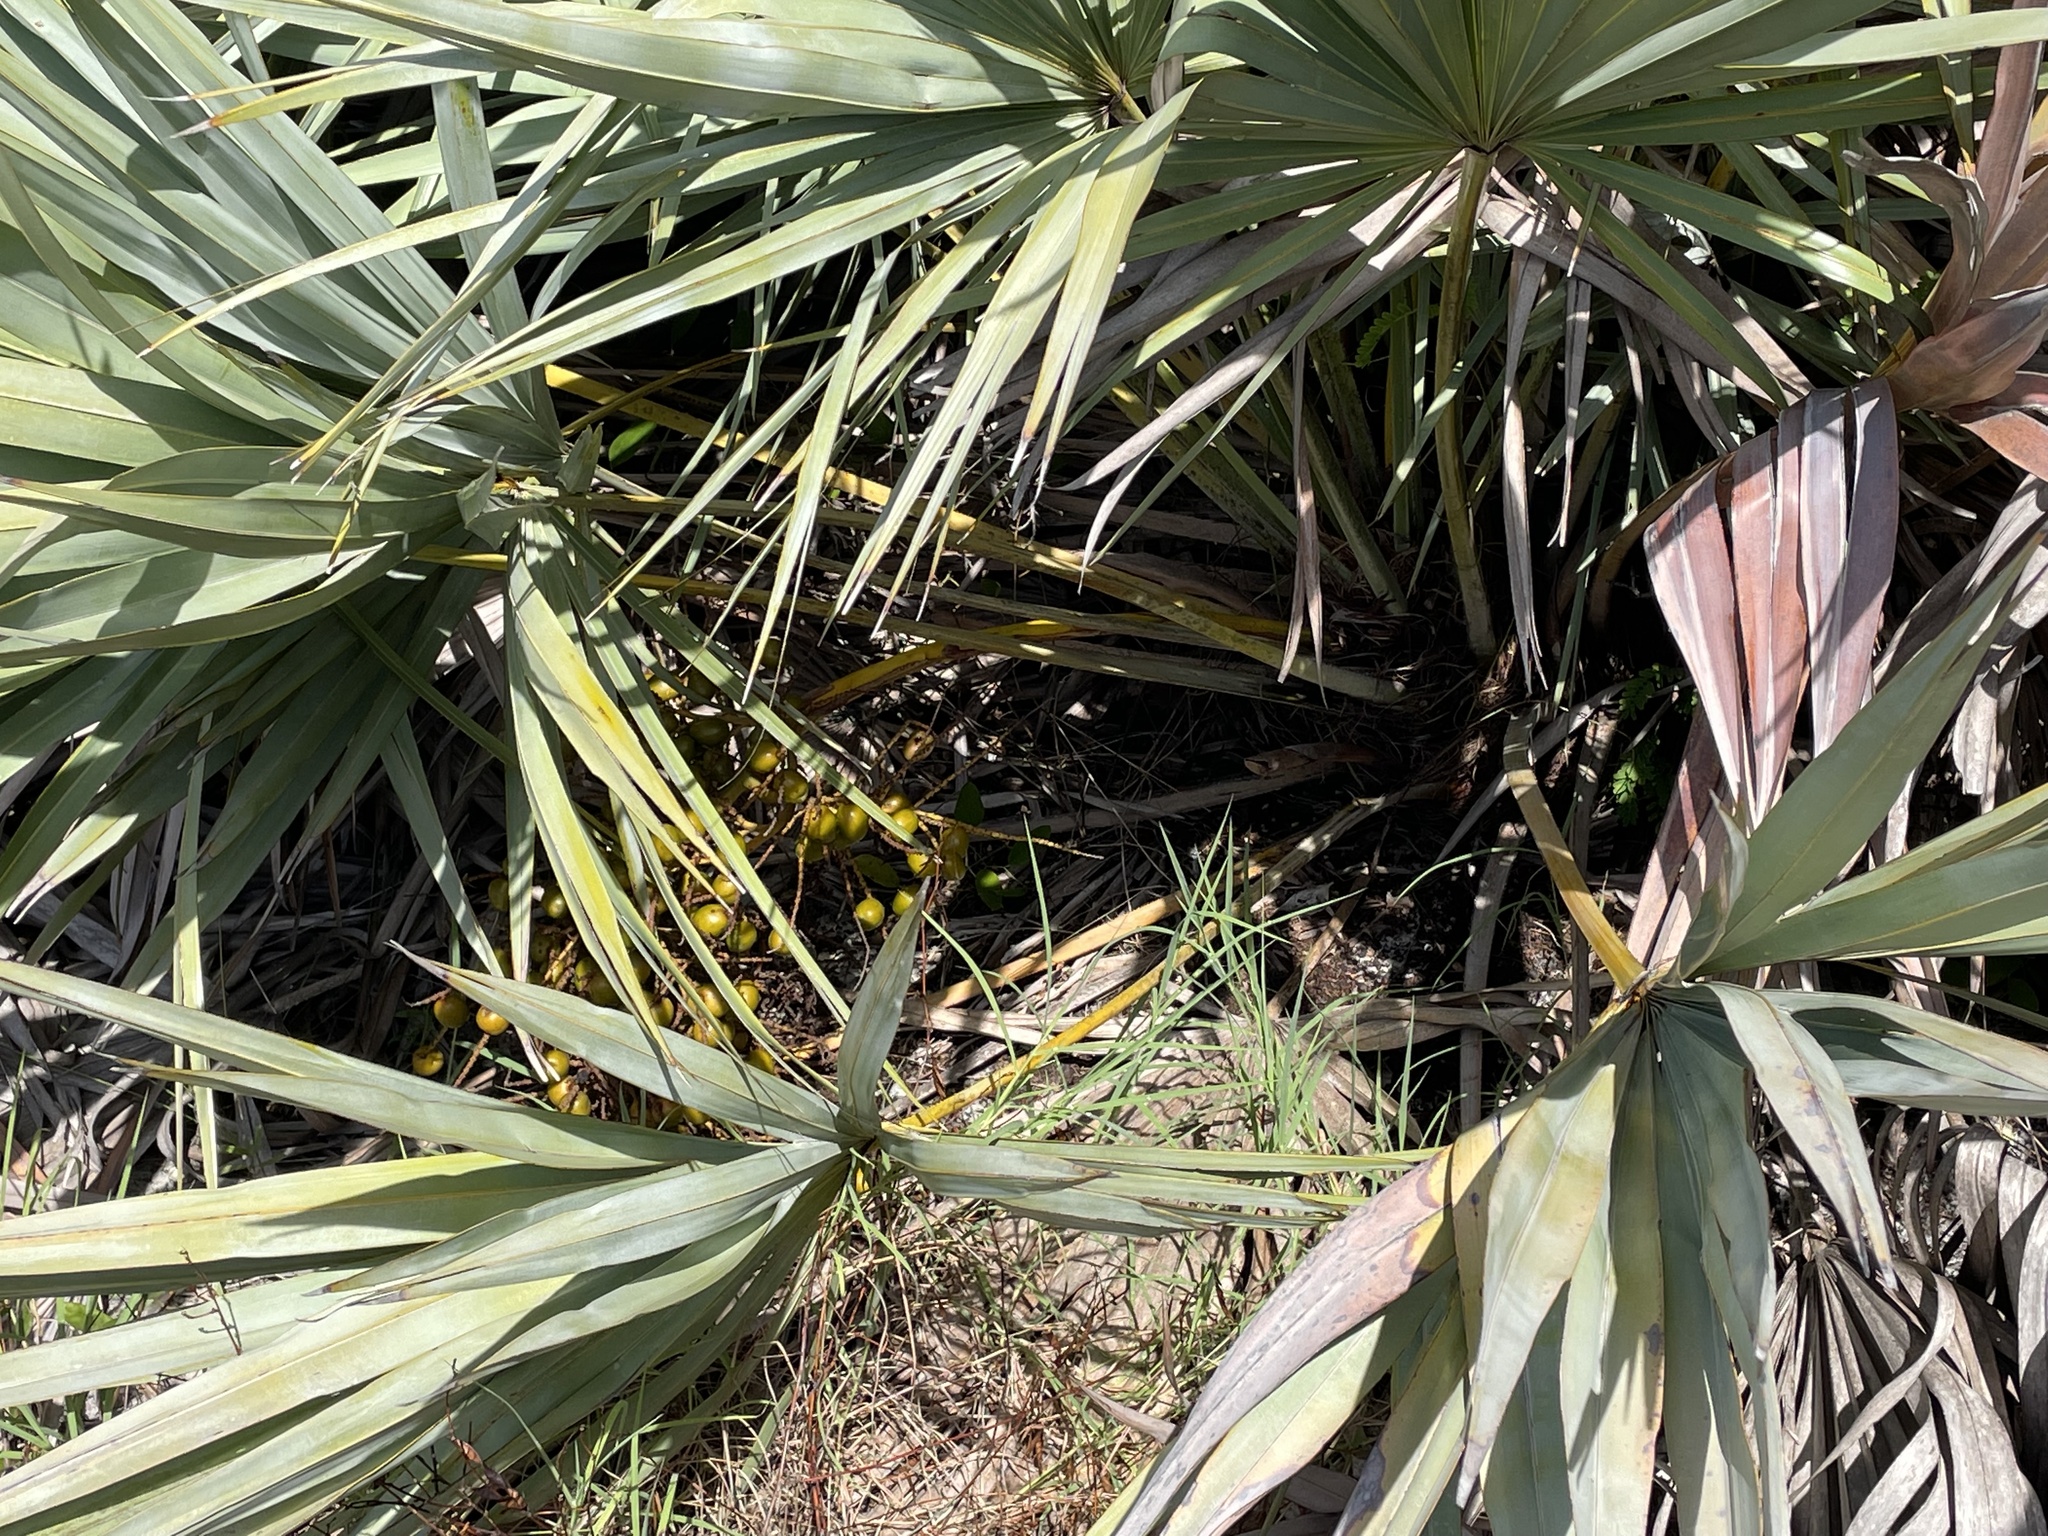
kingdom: Plantae
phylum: Tracheophyta
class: Liliopsida
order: Arecales
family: Arecaceae
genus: Serenoa
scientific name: Serenoa repens
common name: Saw-palmetto
